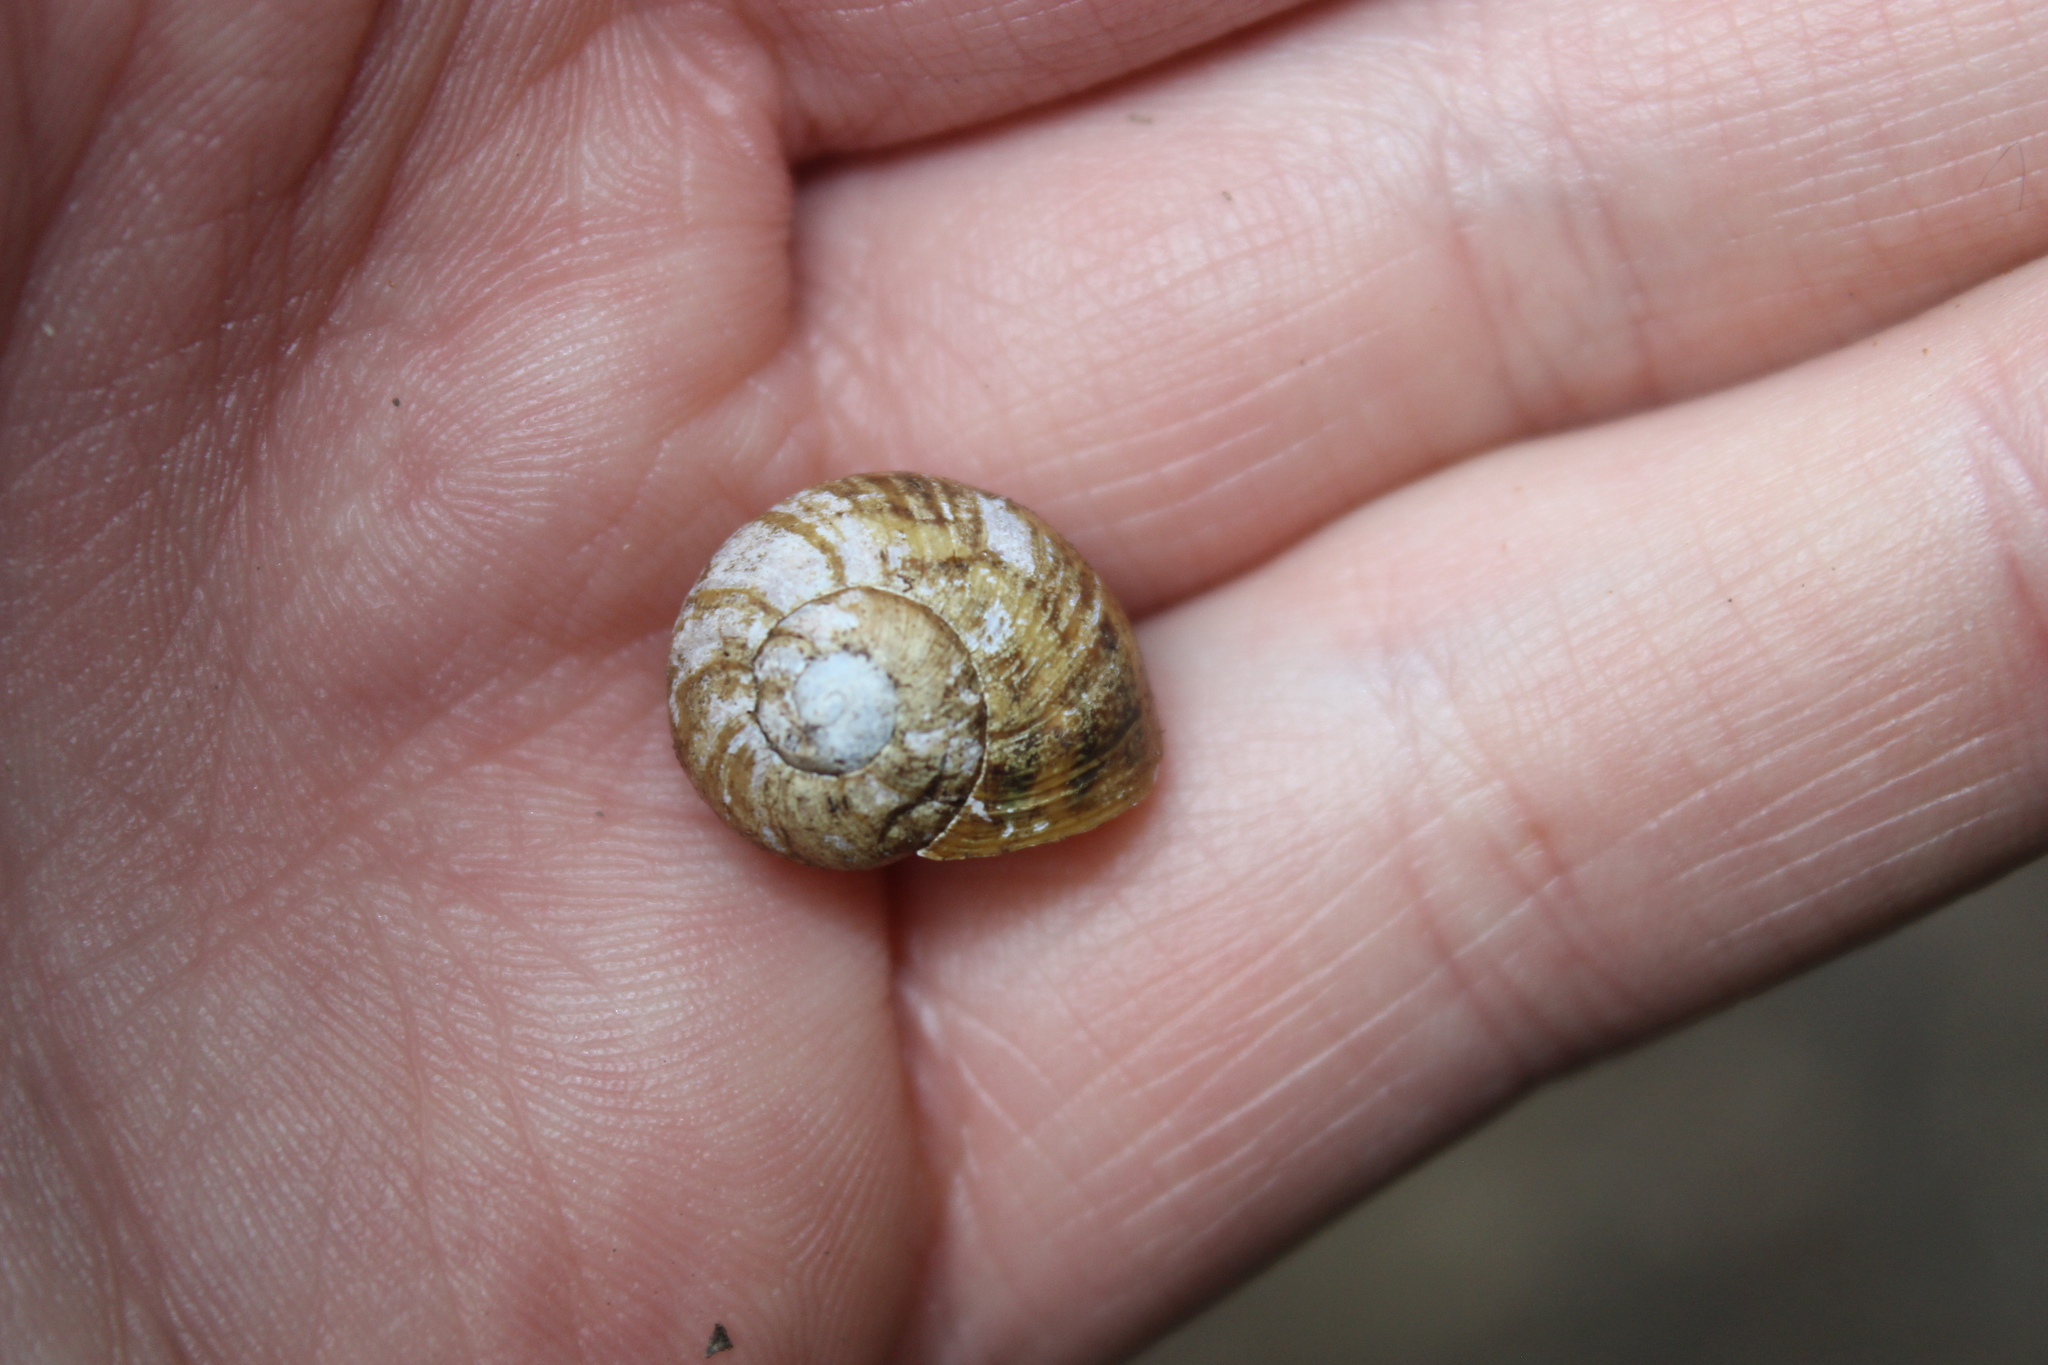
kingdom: Animalia
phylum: Mollusca
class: Gastropoda
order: Stylommatophora
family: Helicidae
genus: Cornu
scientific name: Cornu aspersum
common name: Brown garden snail
